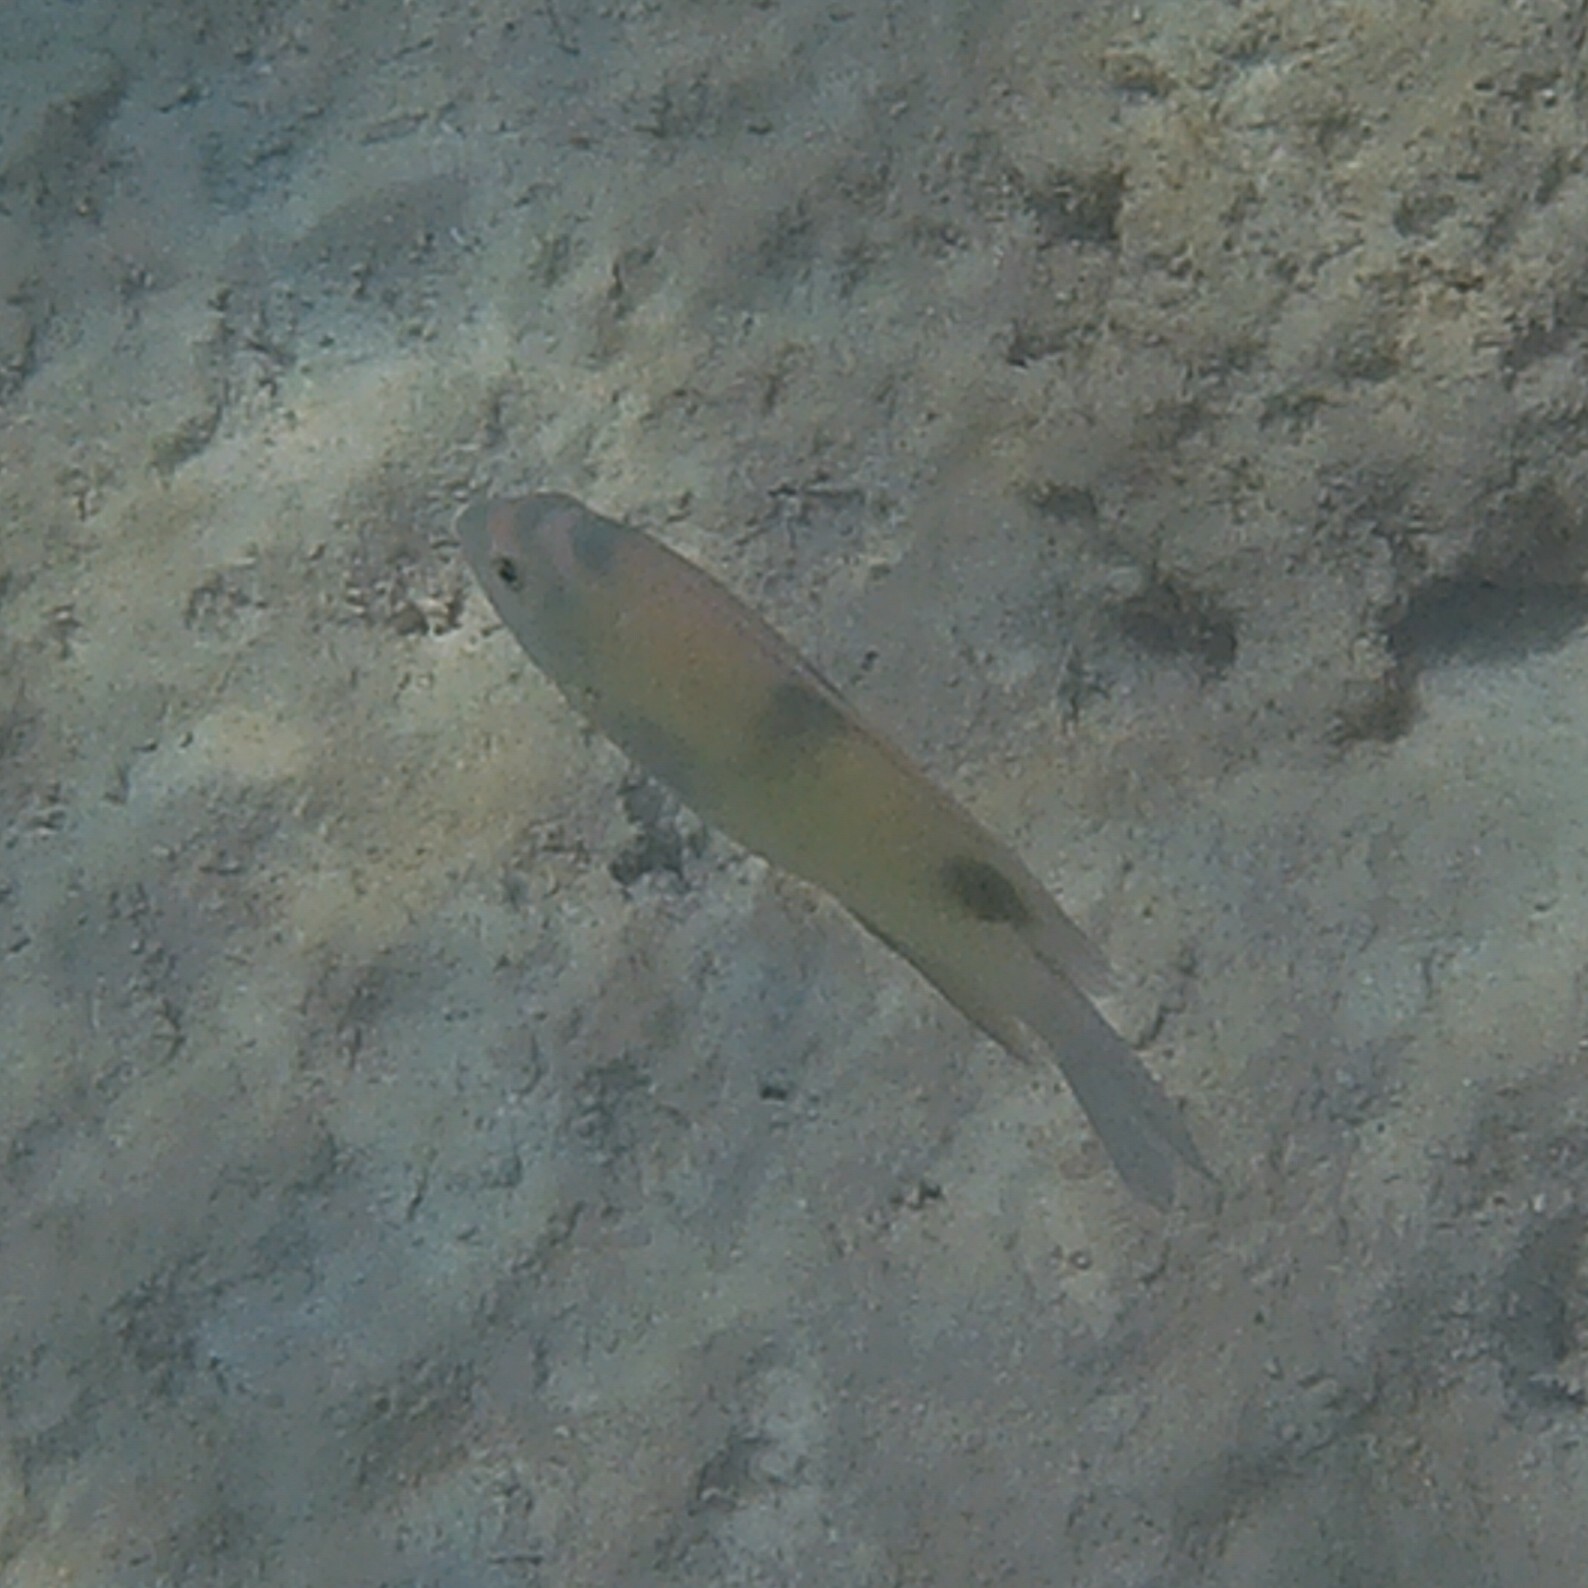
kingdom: Animalia
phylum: Chordata
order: Perciformes
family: Pomacentridae
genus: Dischistodus
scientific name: Dischistodus perspicillatus
